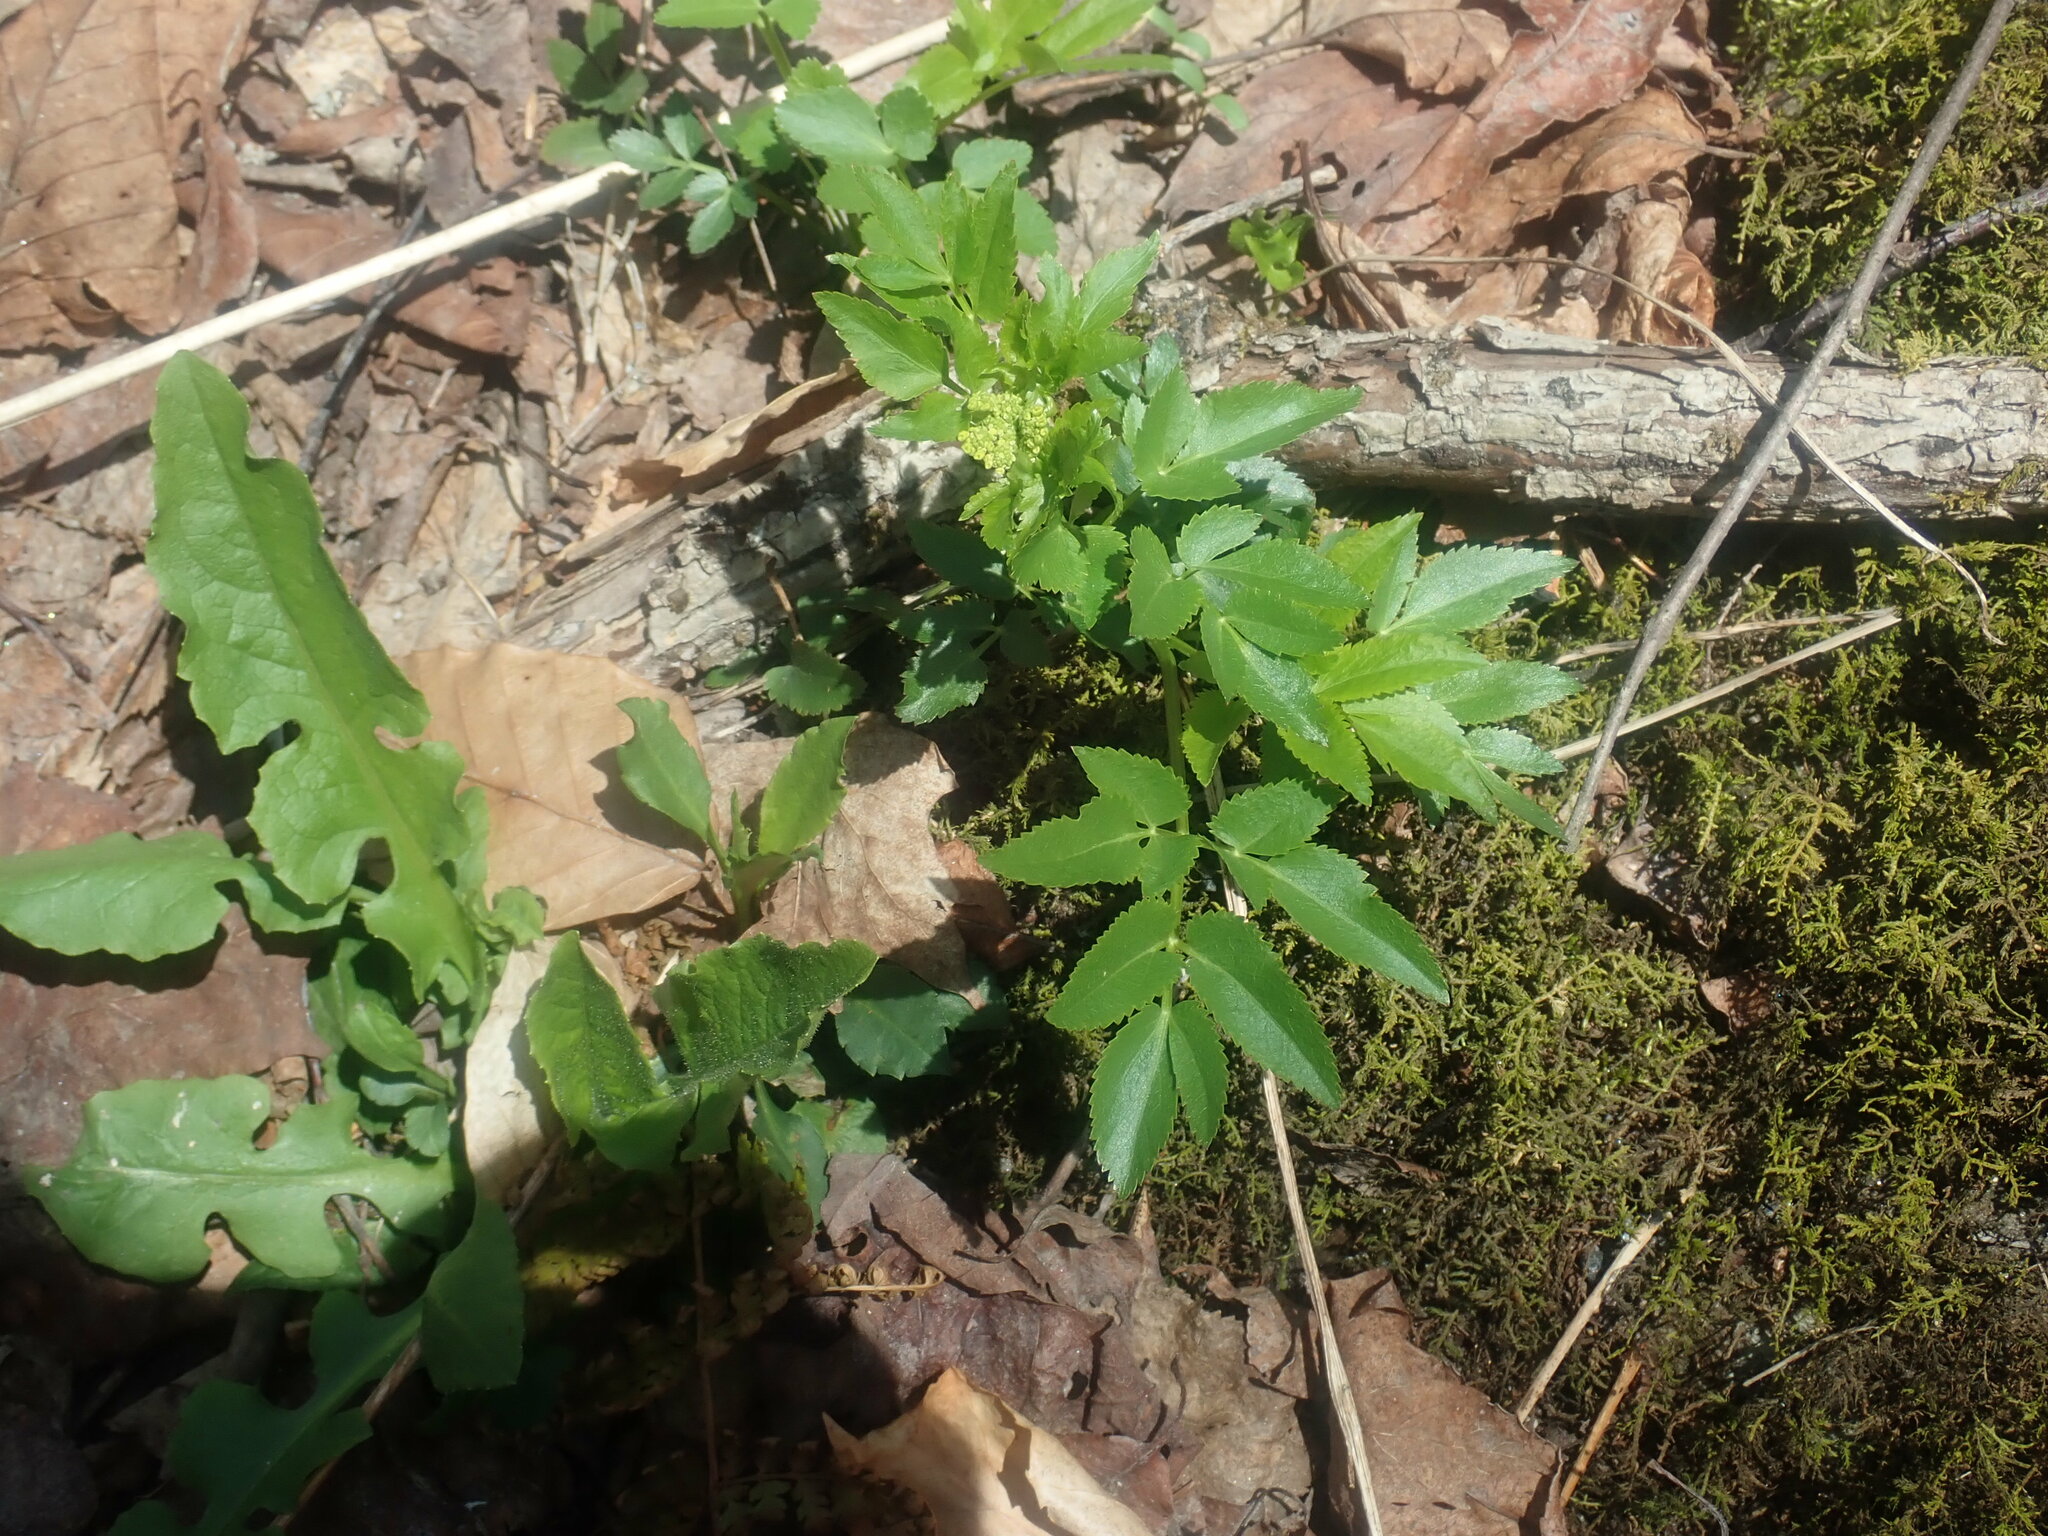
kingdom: Plantae
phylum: Tracheophyta
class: Magnoliopsida
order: Apiales
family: Apiaceae
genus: Zizia
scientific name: Zizia aurea
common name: Golden alexanders
